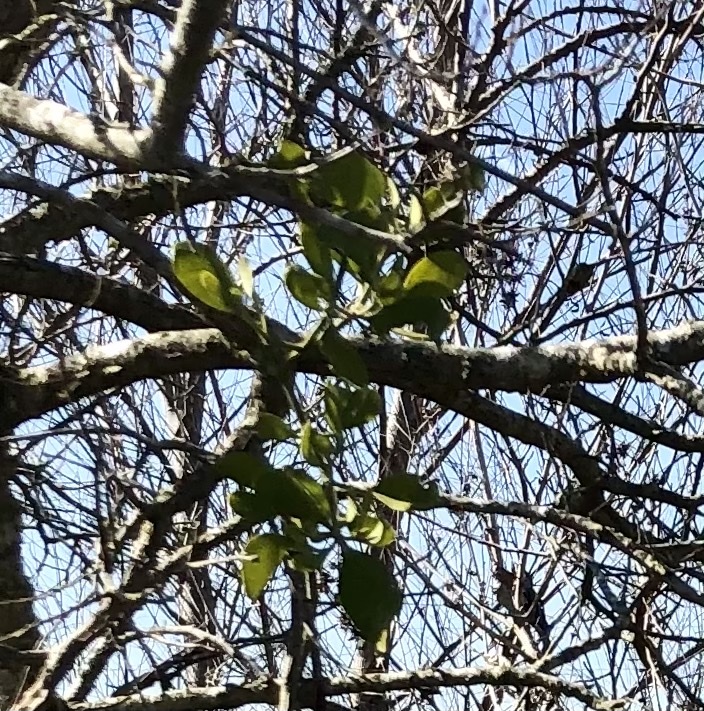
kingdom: Plantae
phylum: Tracheophyta
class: Magnoliopsida
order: Santalales
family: Viscaceae
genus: Phoradendron
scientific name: Phoradendron leucarpum
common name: Pacific mistletoe
